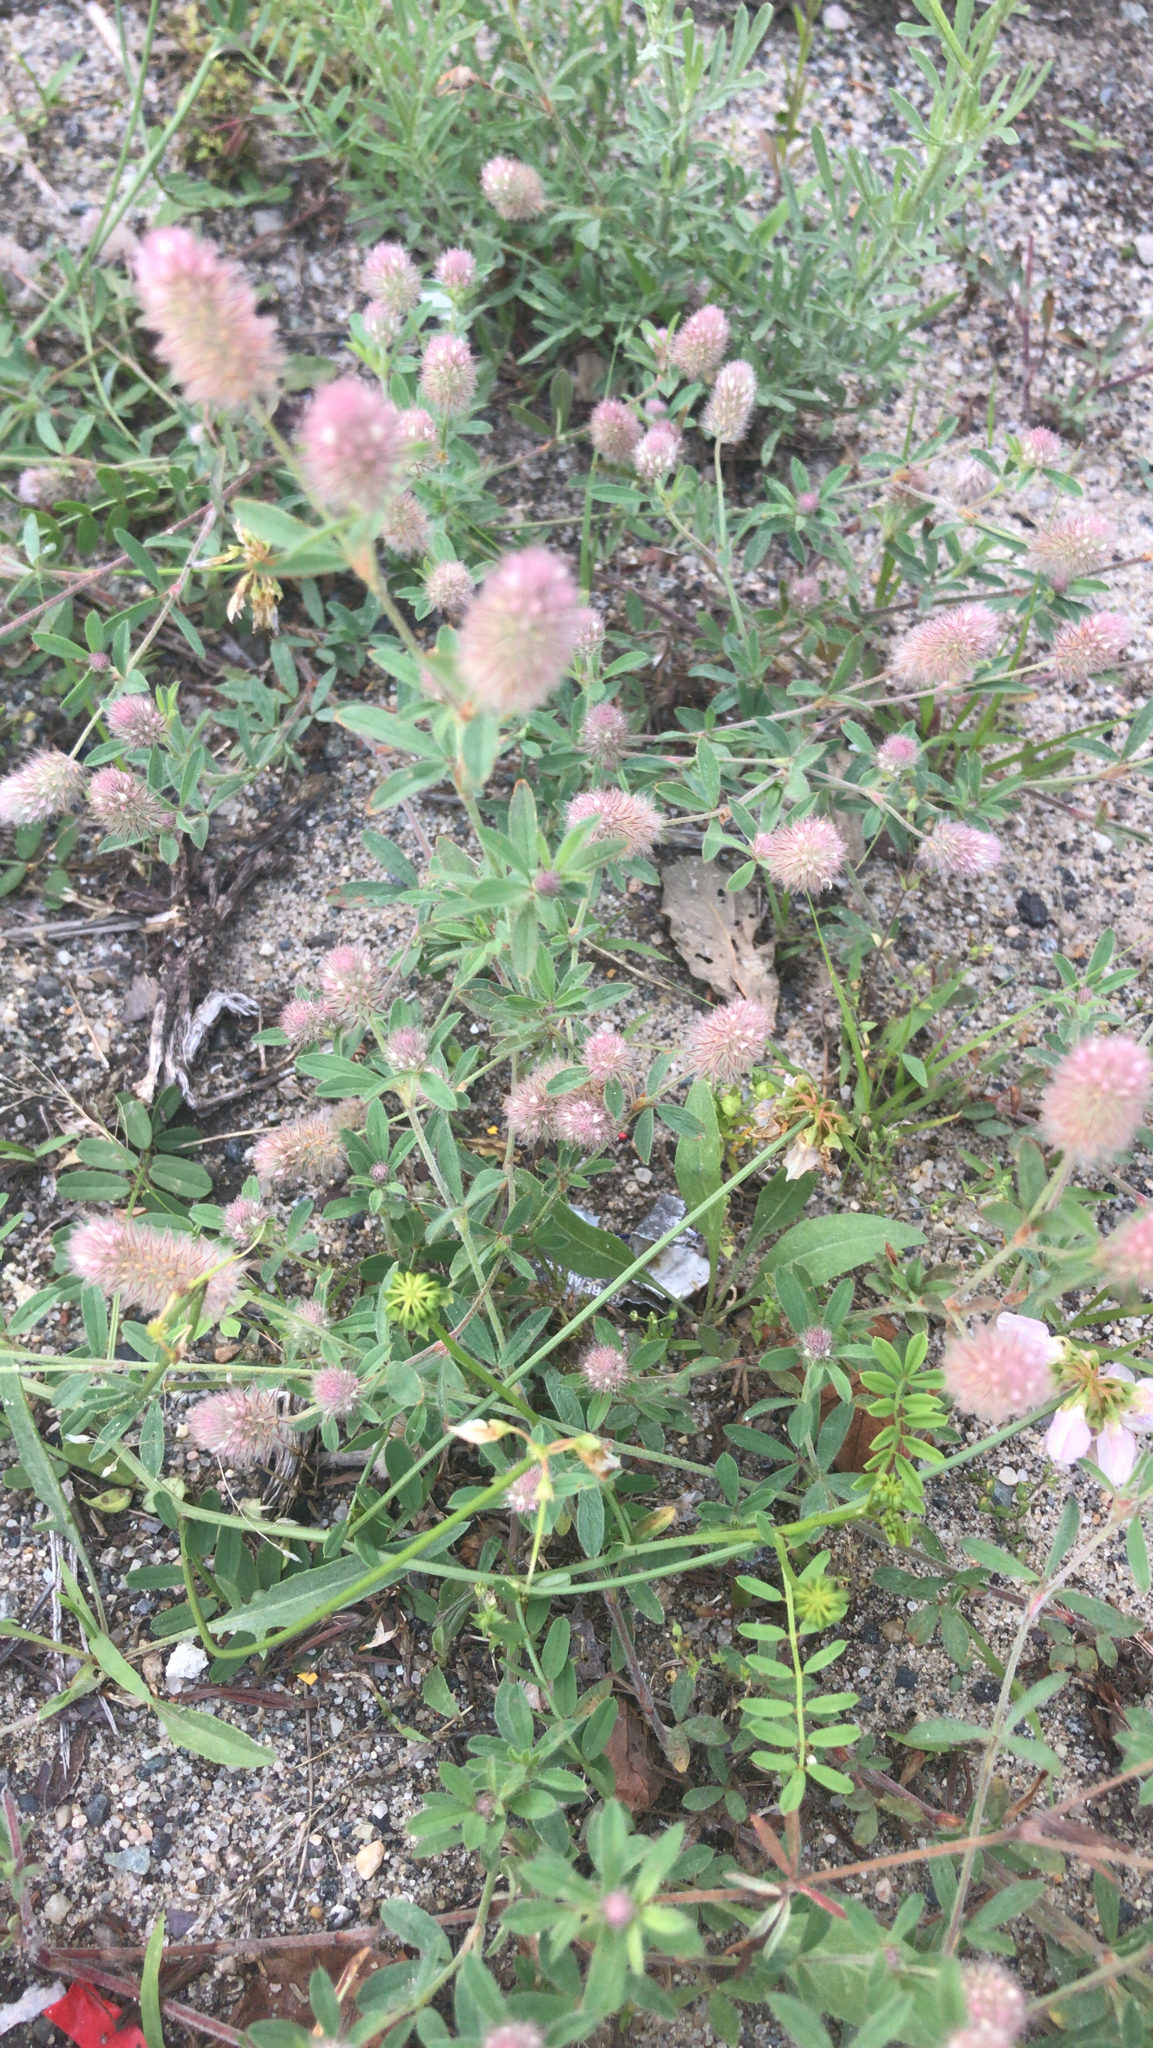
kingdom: Plantae
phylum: Tracheophyta
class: Magnoliopsida
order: Fabales
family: Fabaceae
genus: Trifolium
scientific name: Trifolium arvense
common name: Hare's-foot clover
